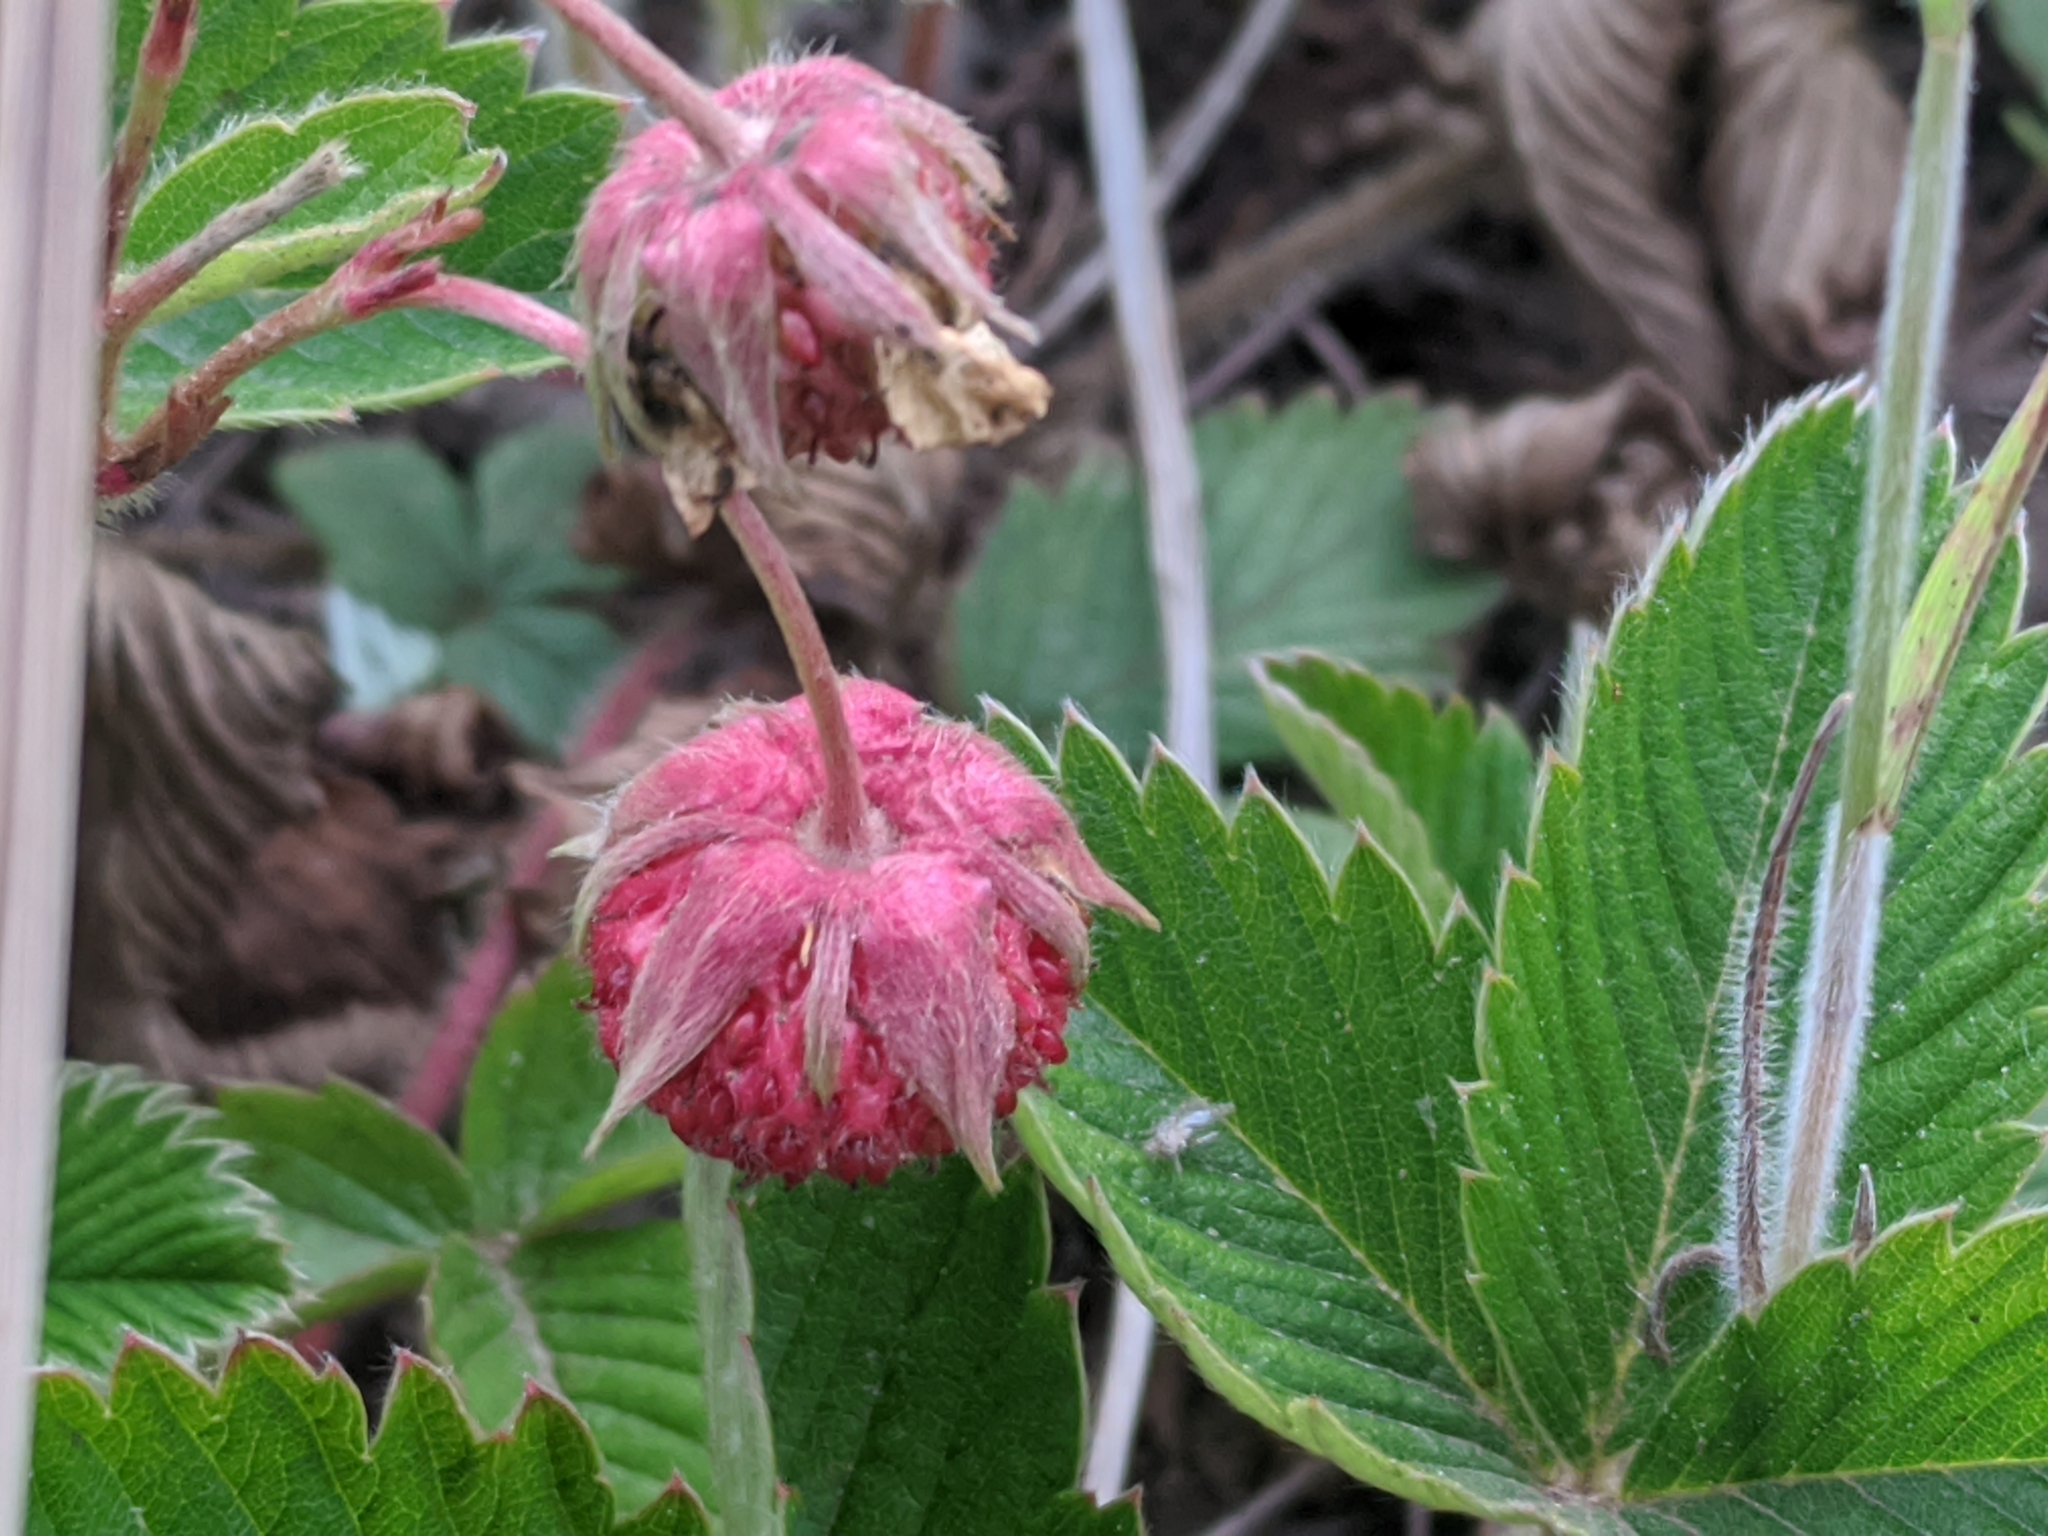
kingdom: Plantae
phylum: Tracheophyta
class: Magnoliopsida
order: Rosales
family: Rosaceae
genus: Fragaria
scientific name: Fragaria viridis
